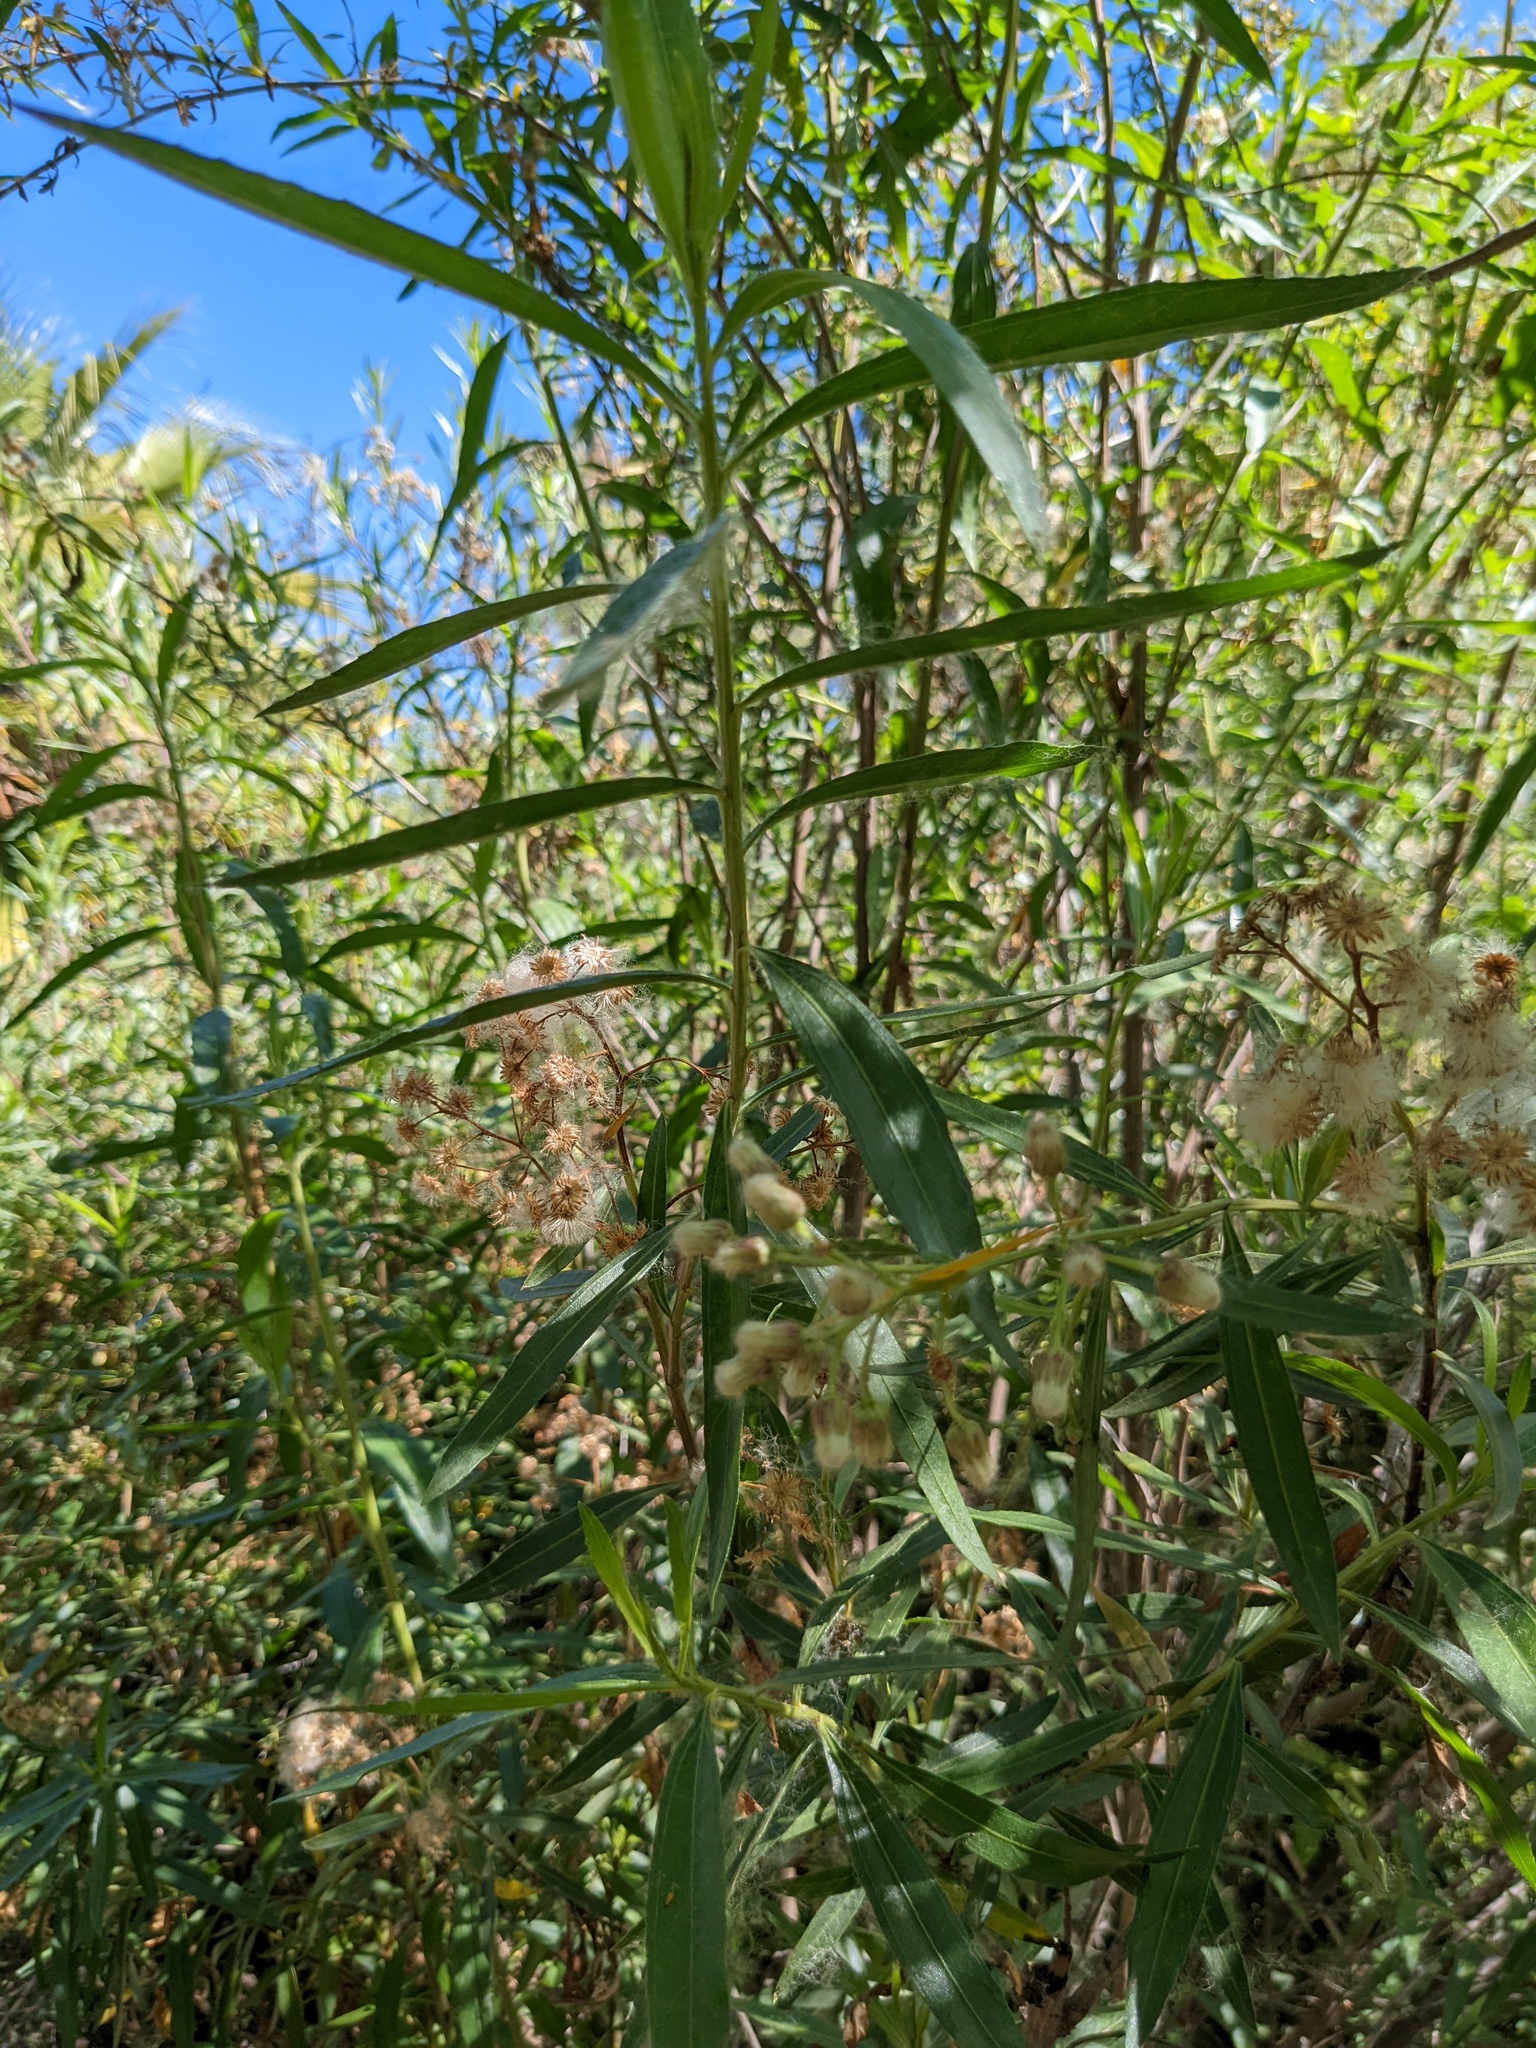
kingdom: Plantae
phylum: Tracheophyta
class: Magnoliopsida
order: Asterales
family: Asteraceae
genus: Baccharis
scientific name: Baccharis salicifolia
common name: Sticky baccharis
